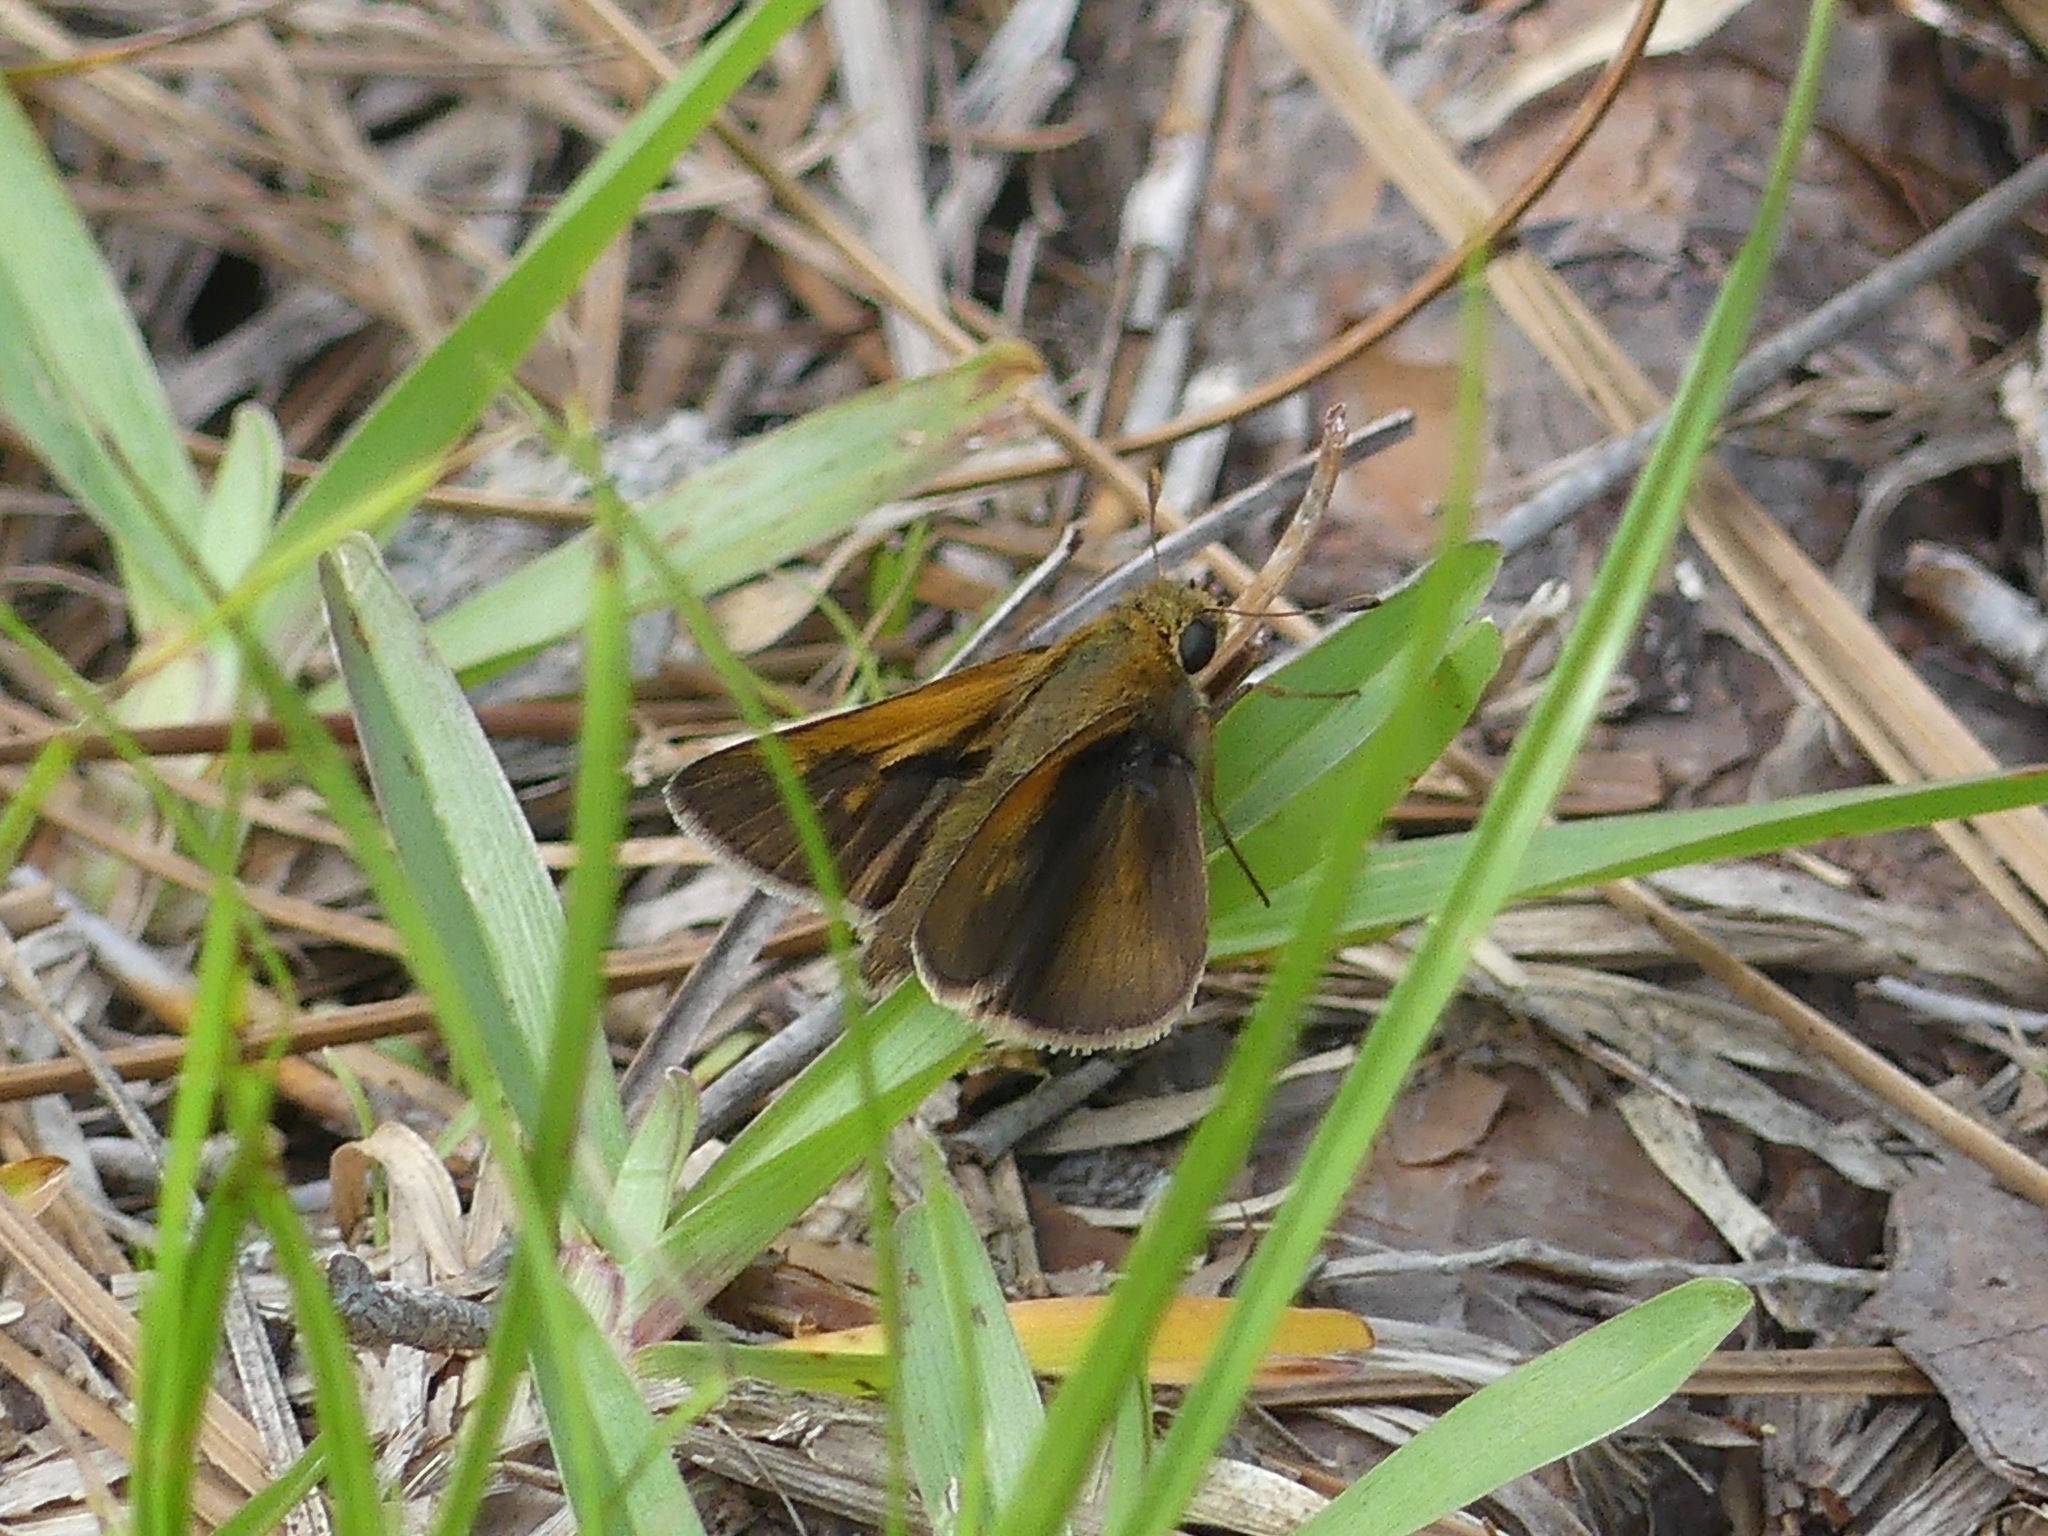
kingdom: Animalia
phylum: Arthropoda
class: Insecta
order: Lepidoptera
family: Hesperiidae
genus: Polites
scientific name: Polites themistocles
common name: Tawny-edged skipper
